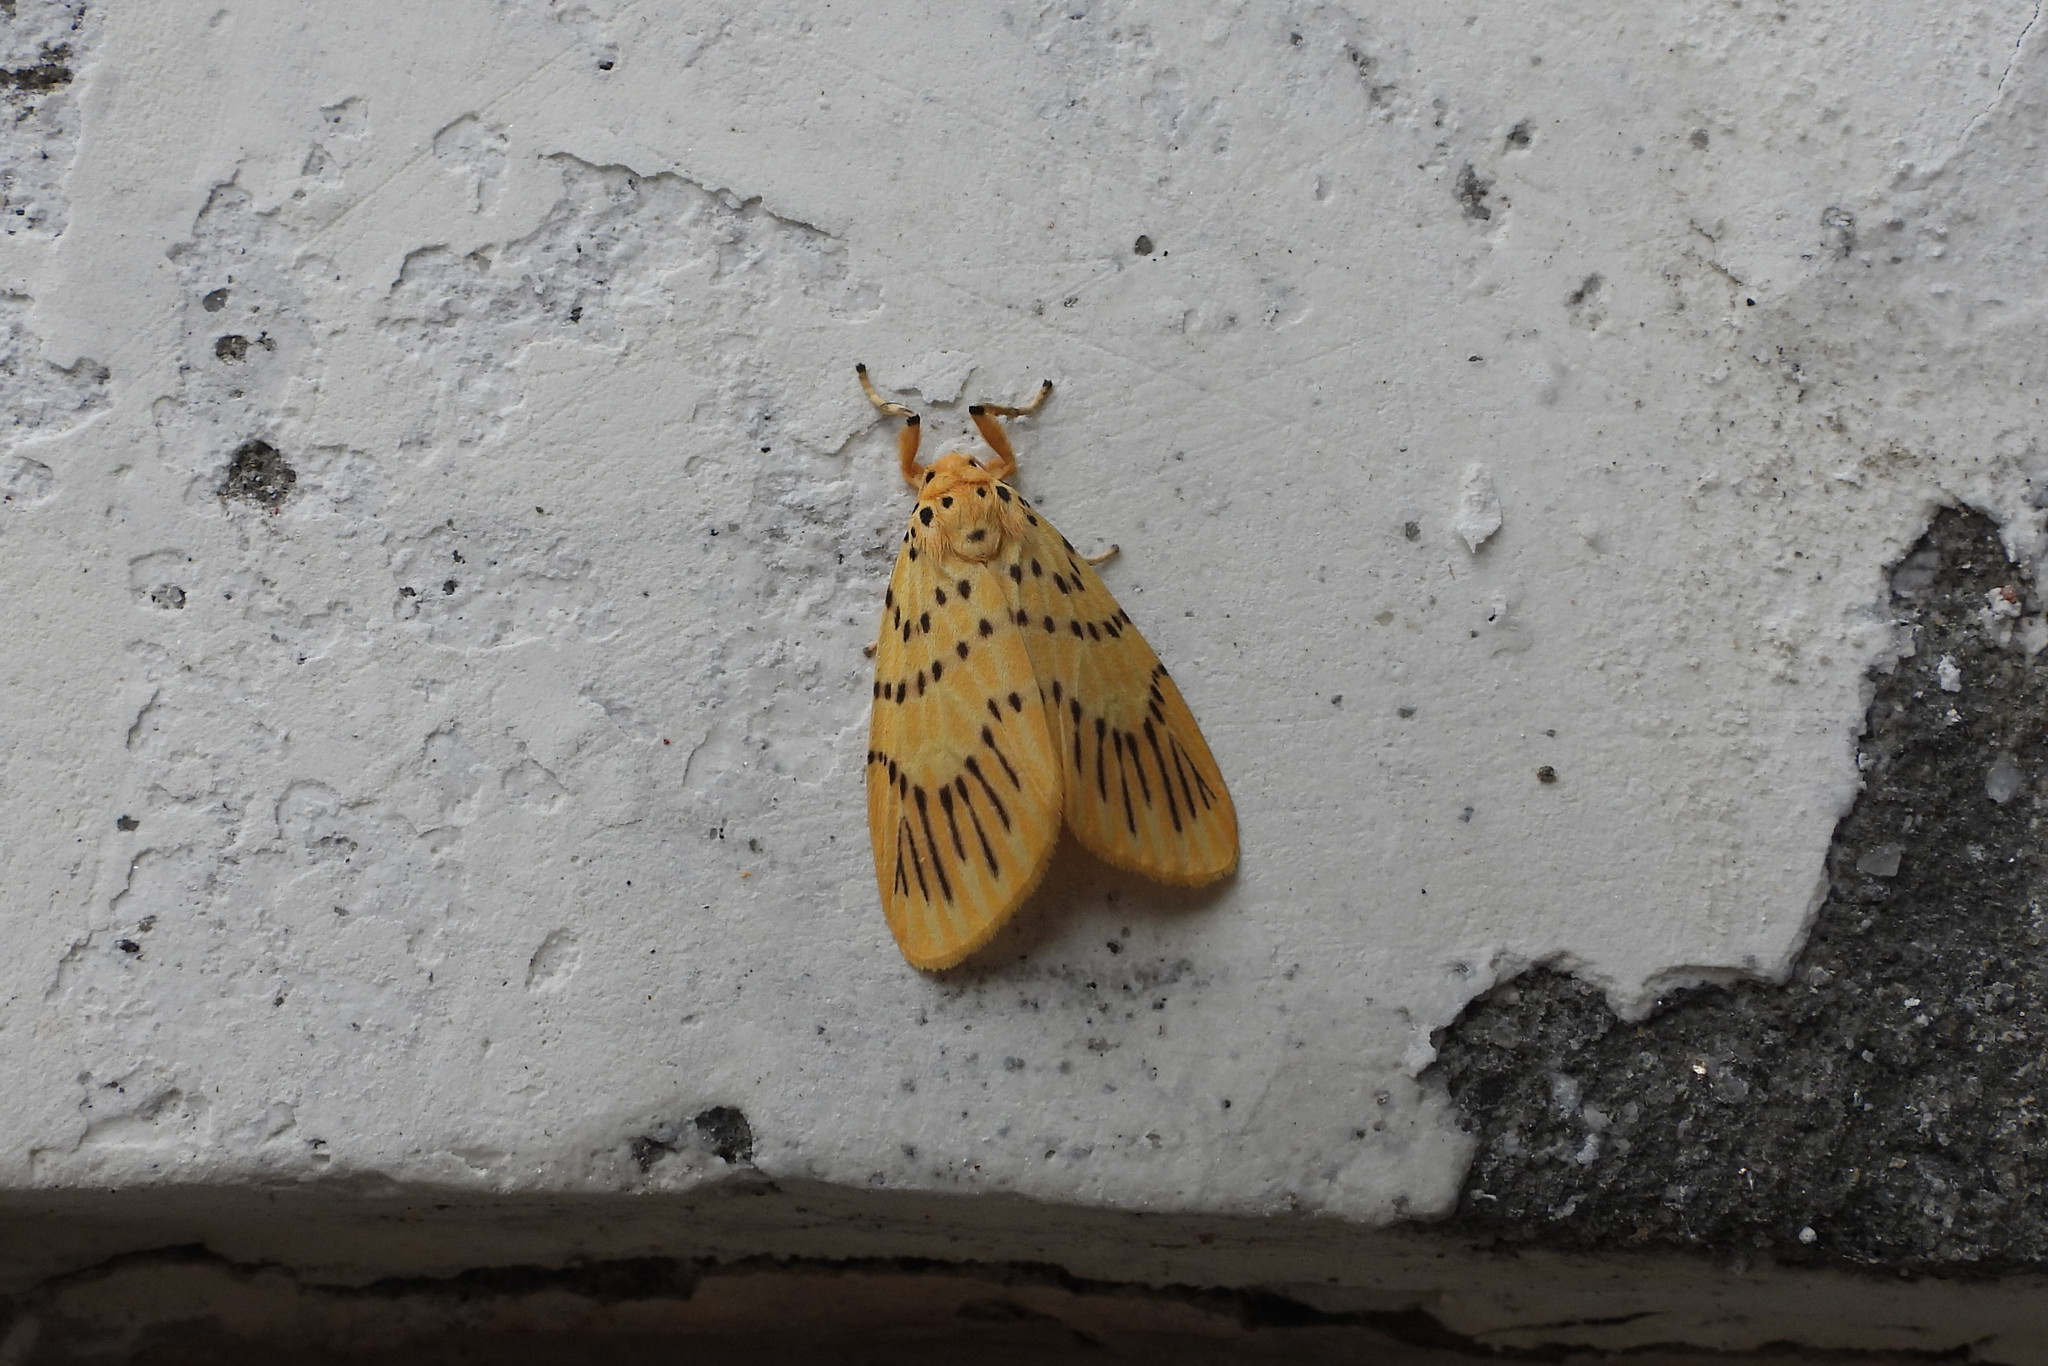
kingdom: Animalia
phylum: Arthropoda
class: Insecta
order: Lepidoptera
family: Erebidae
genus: Barsine
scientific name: Barsine linga
